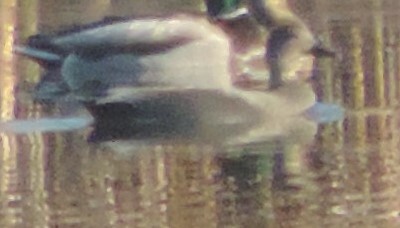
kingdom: Animalia
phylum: Chordata
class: Aves
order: Anseriformes
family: Anatidae
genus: Mareca
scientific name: Mareca strepera
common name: Gadwall
